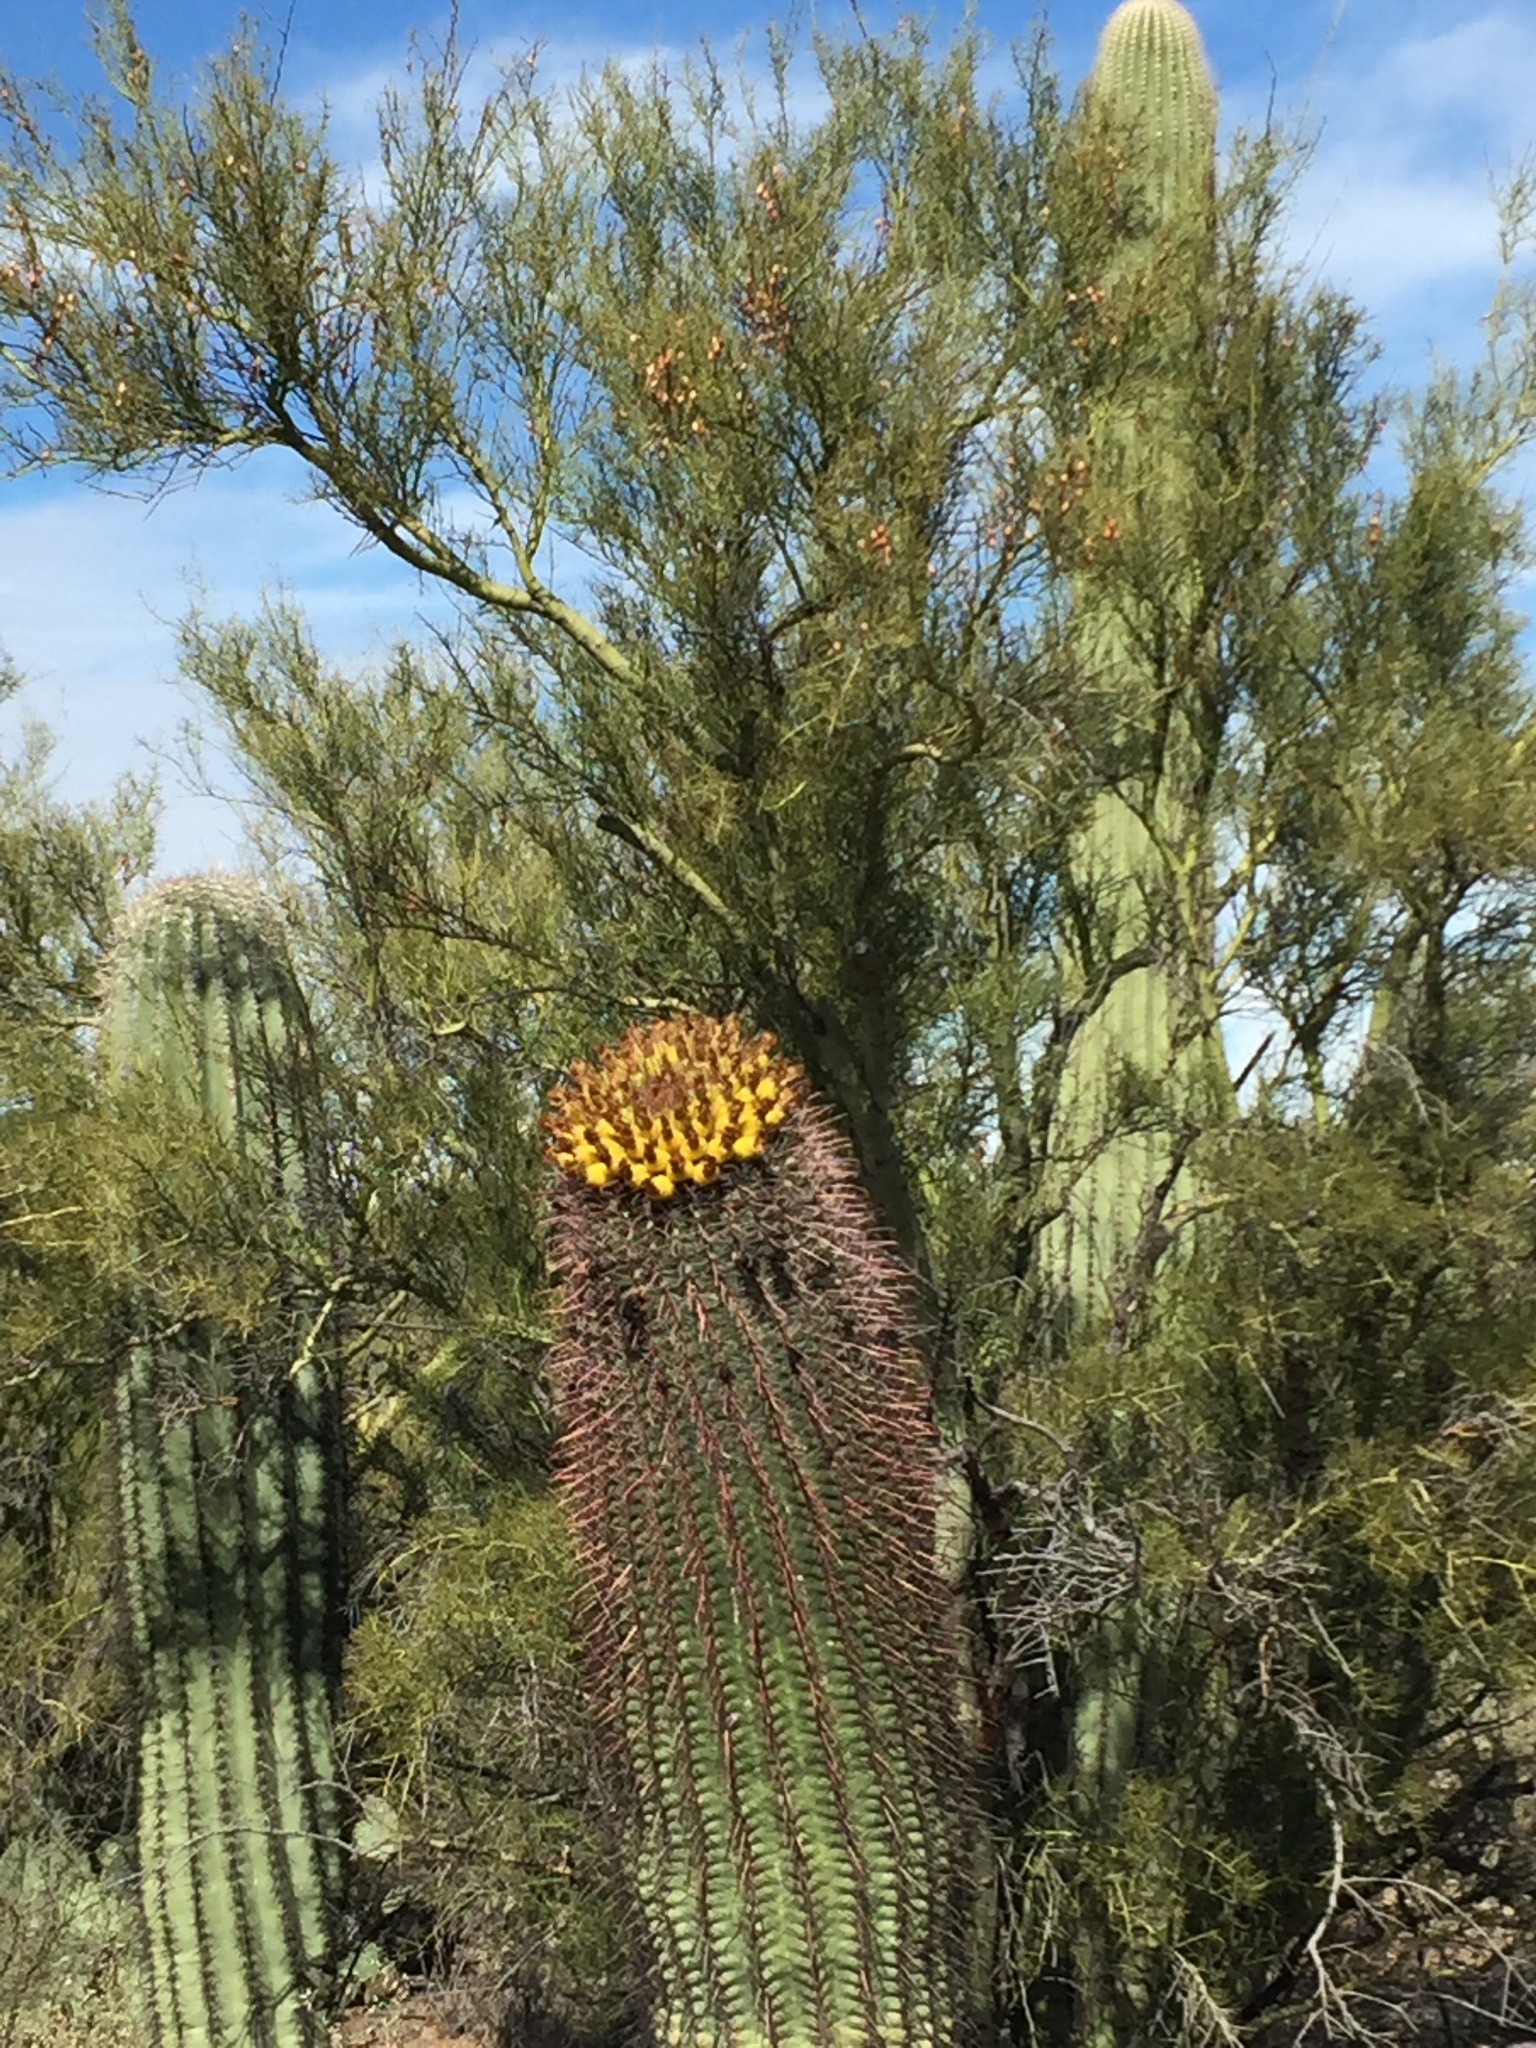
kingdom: Plantae
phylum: Tracheophyta
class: Magnoliopsida
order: Caryophyllales
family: Cactaceae
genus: Ferocactus
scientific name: Ferocactus wislizeni
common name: Candy barrel cactus
